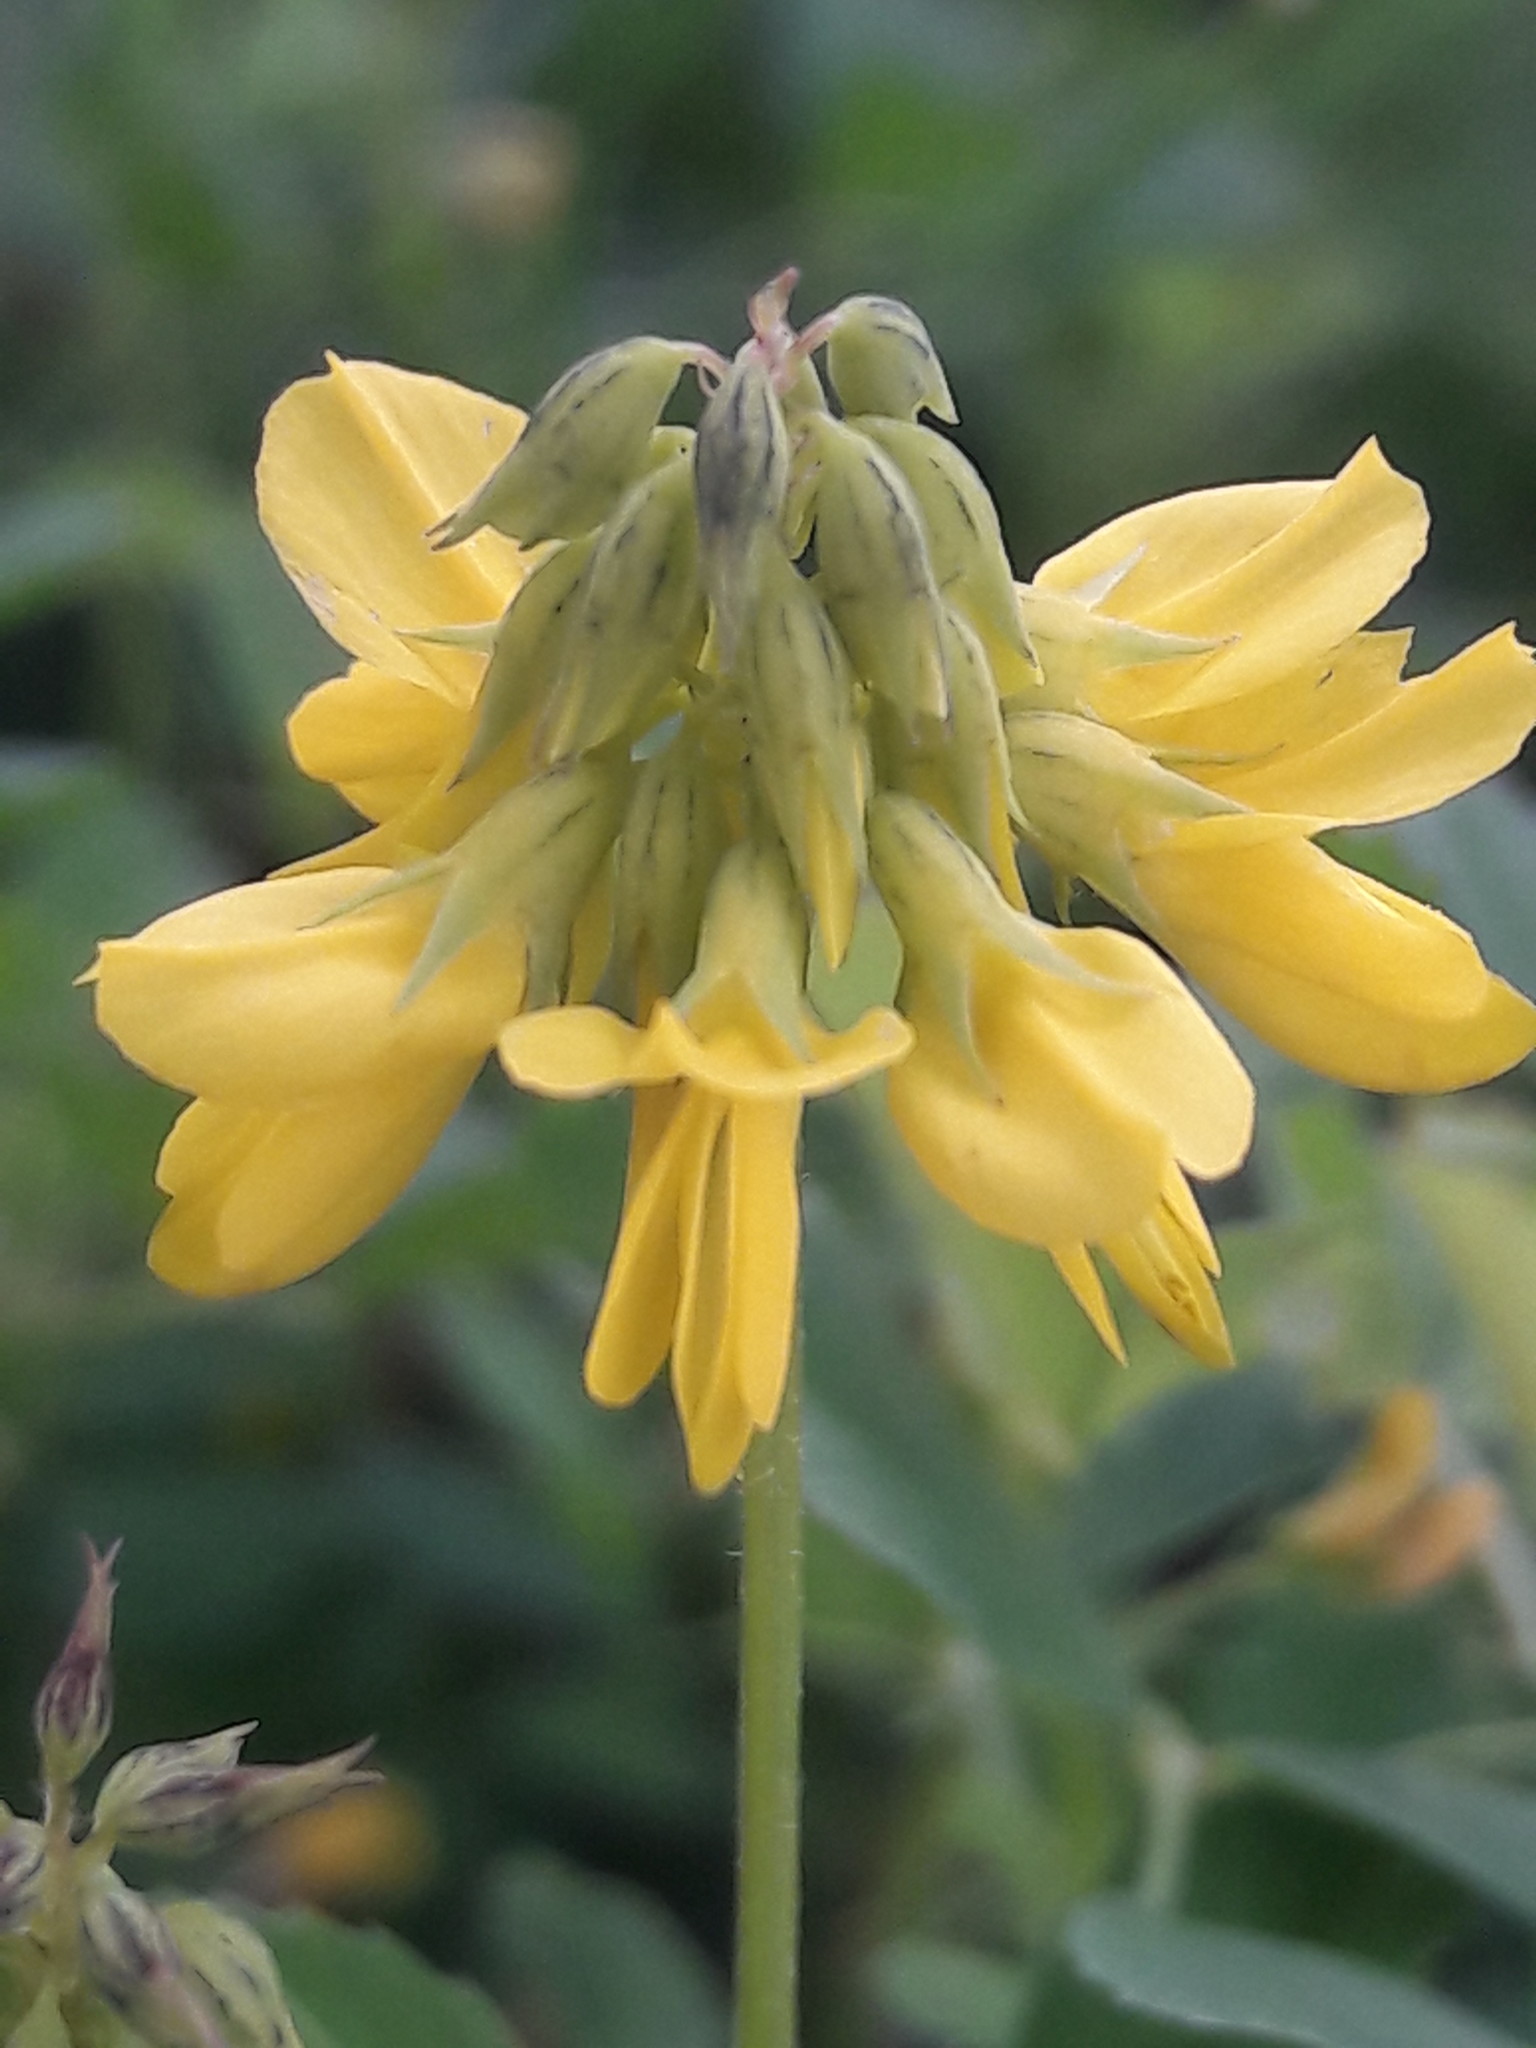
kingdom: Plantae
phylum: Tracheophyta
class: Magnoliopsida
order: Fabales
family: Fabaceae
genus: Trigonella
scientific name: Trigonella esculenta
